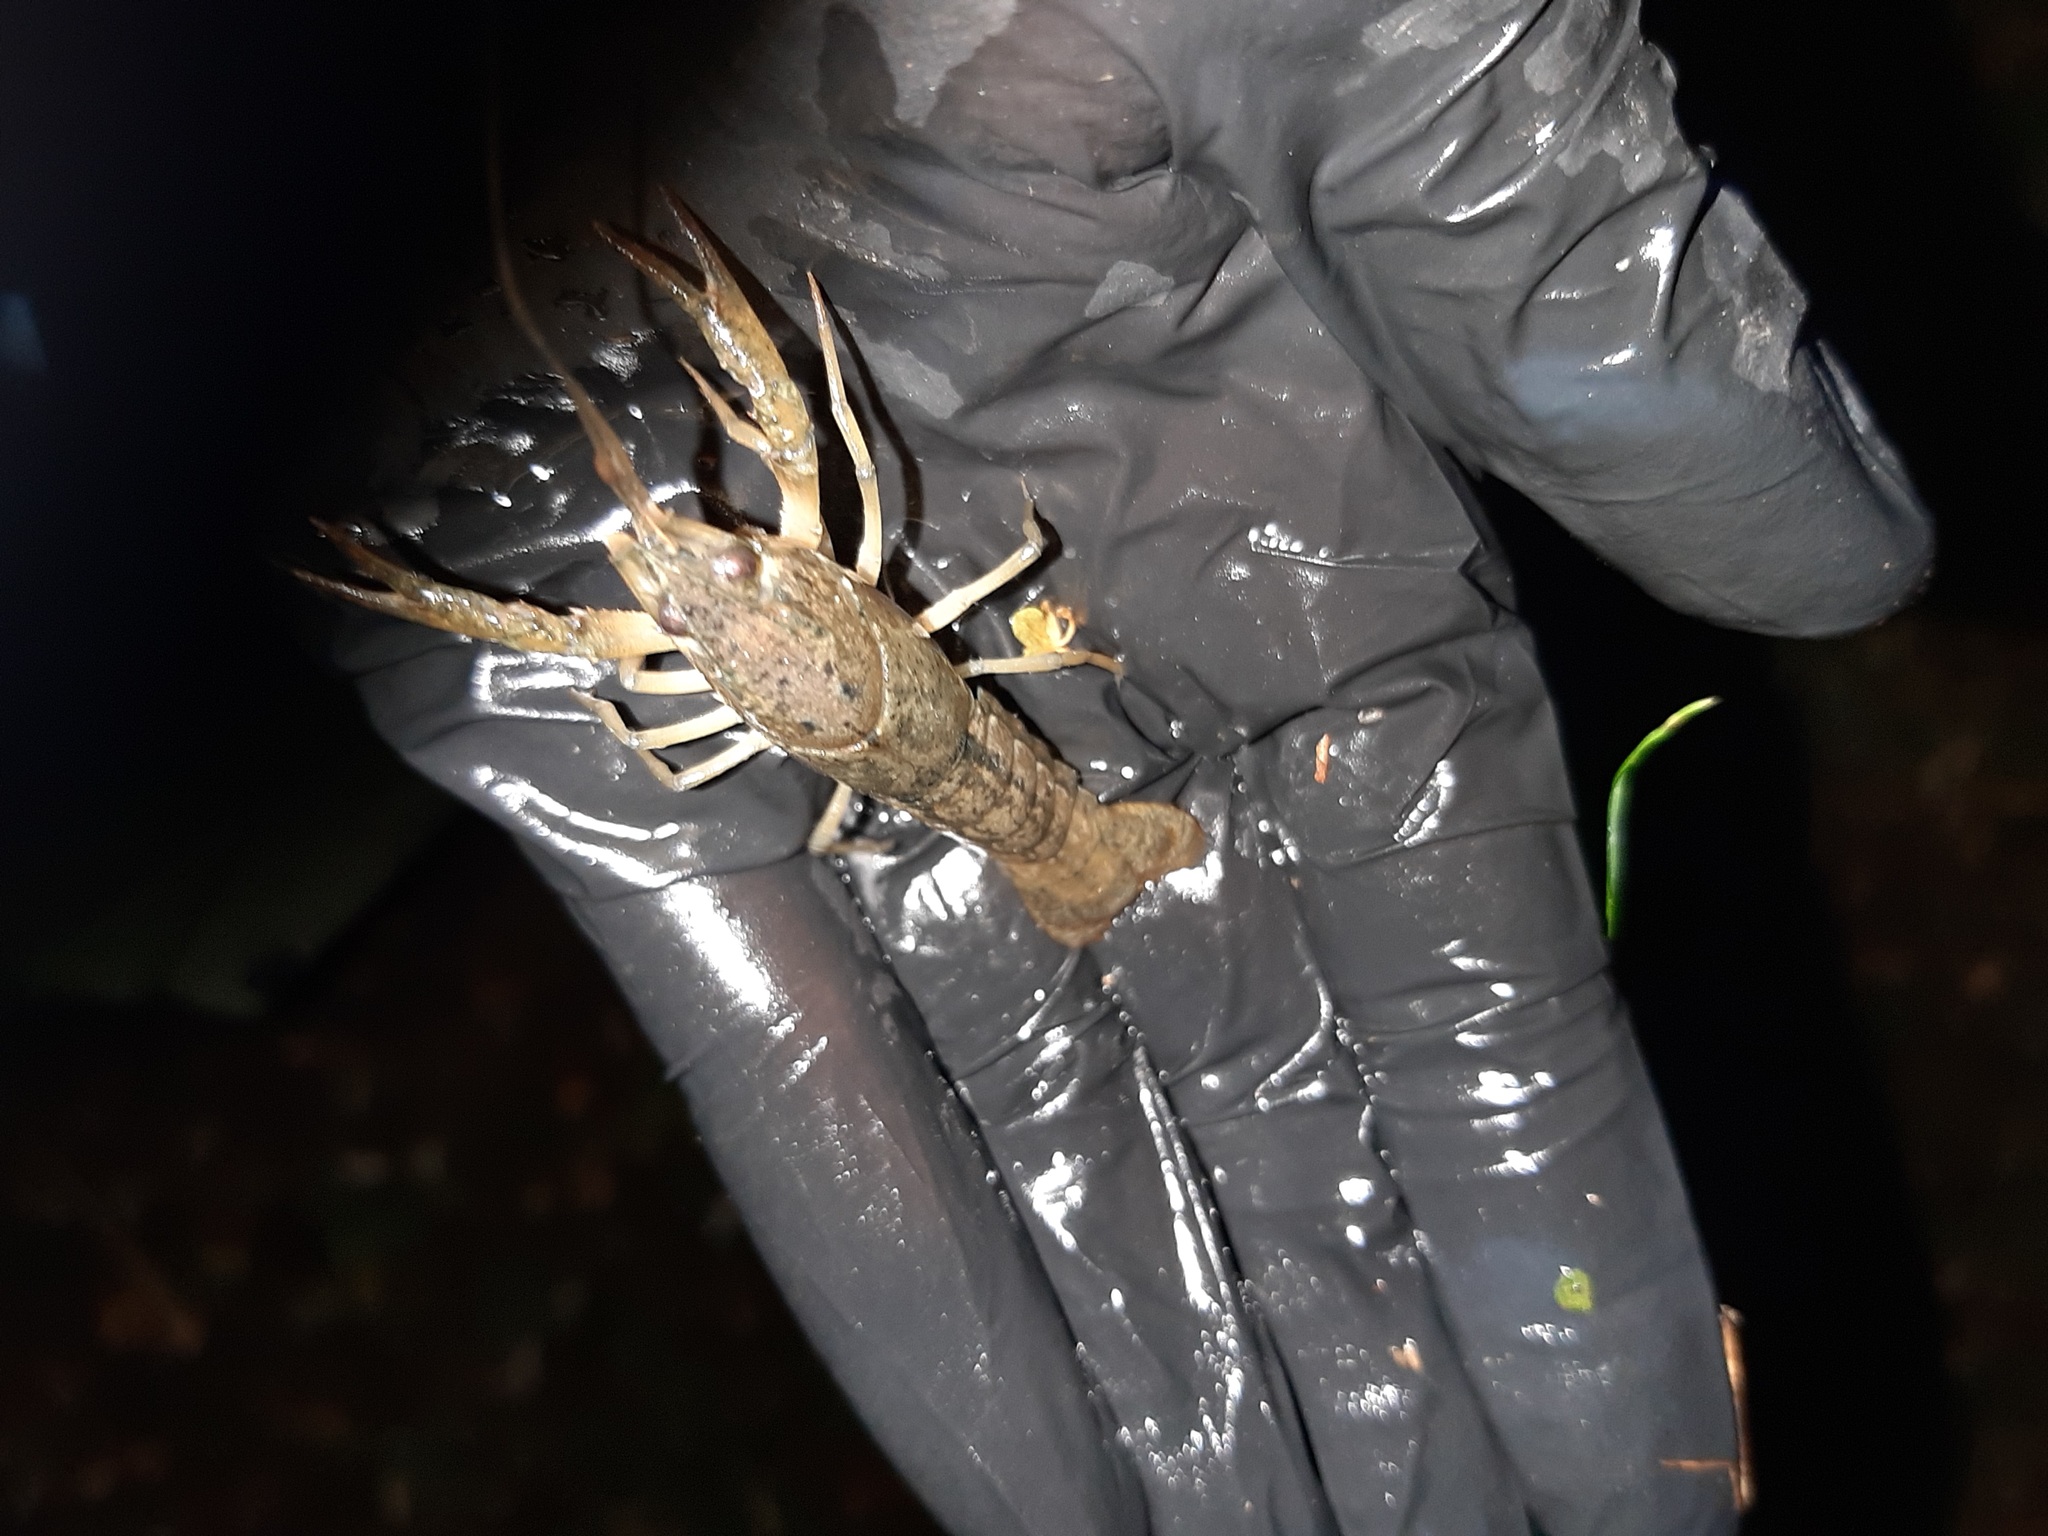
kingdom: Animalia
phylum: Arthropoda
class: Malacostraca
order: Decapoda
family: Cambaridae
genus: Procambarus
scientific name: Procambarus clarkii
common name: Red swamp crayfish
